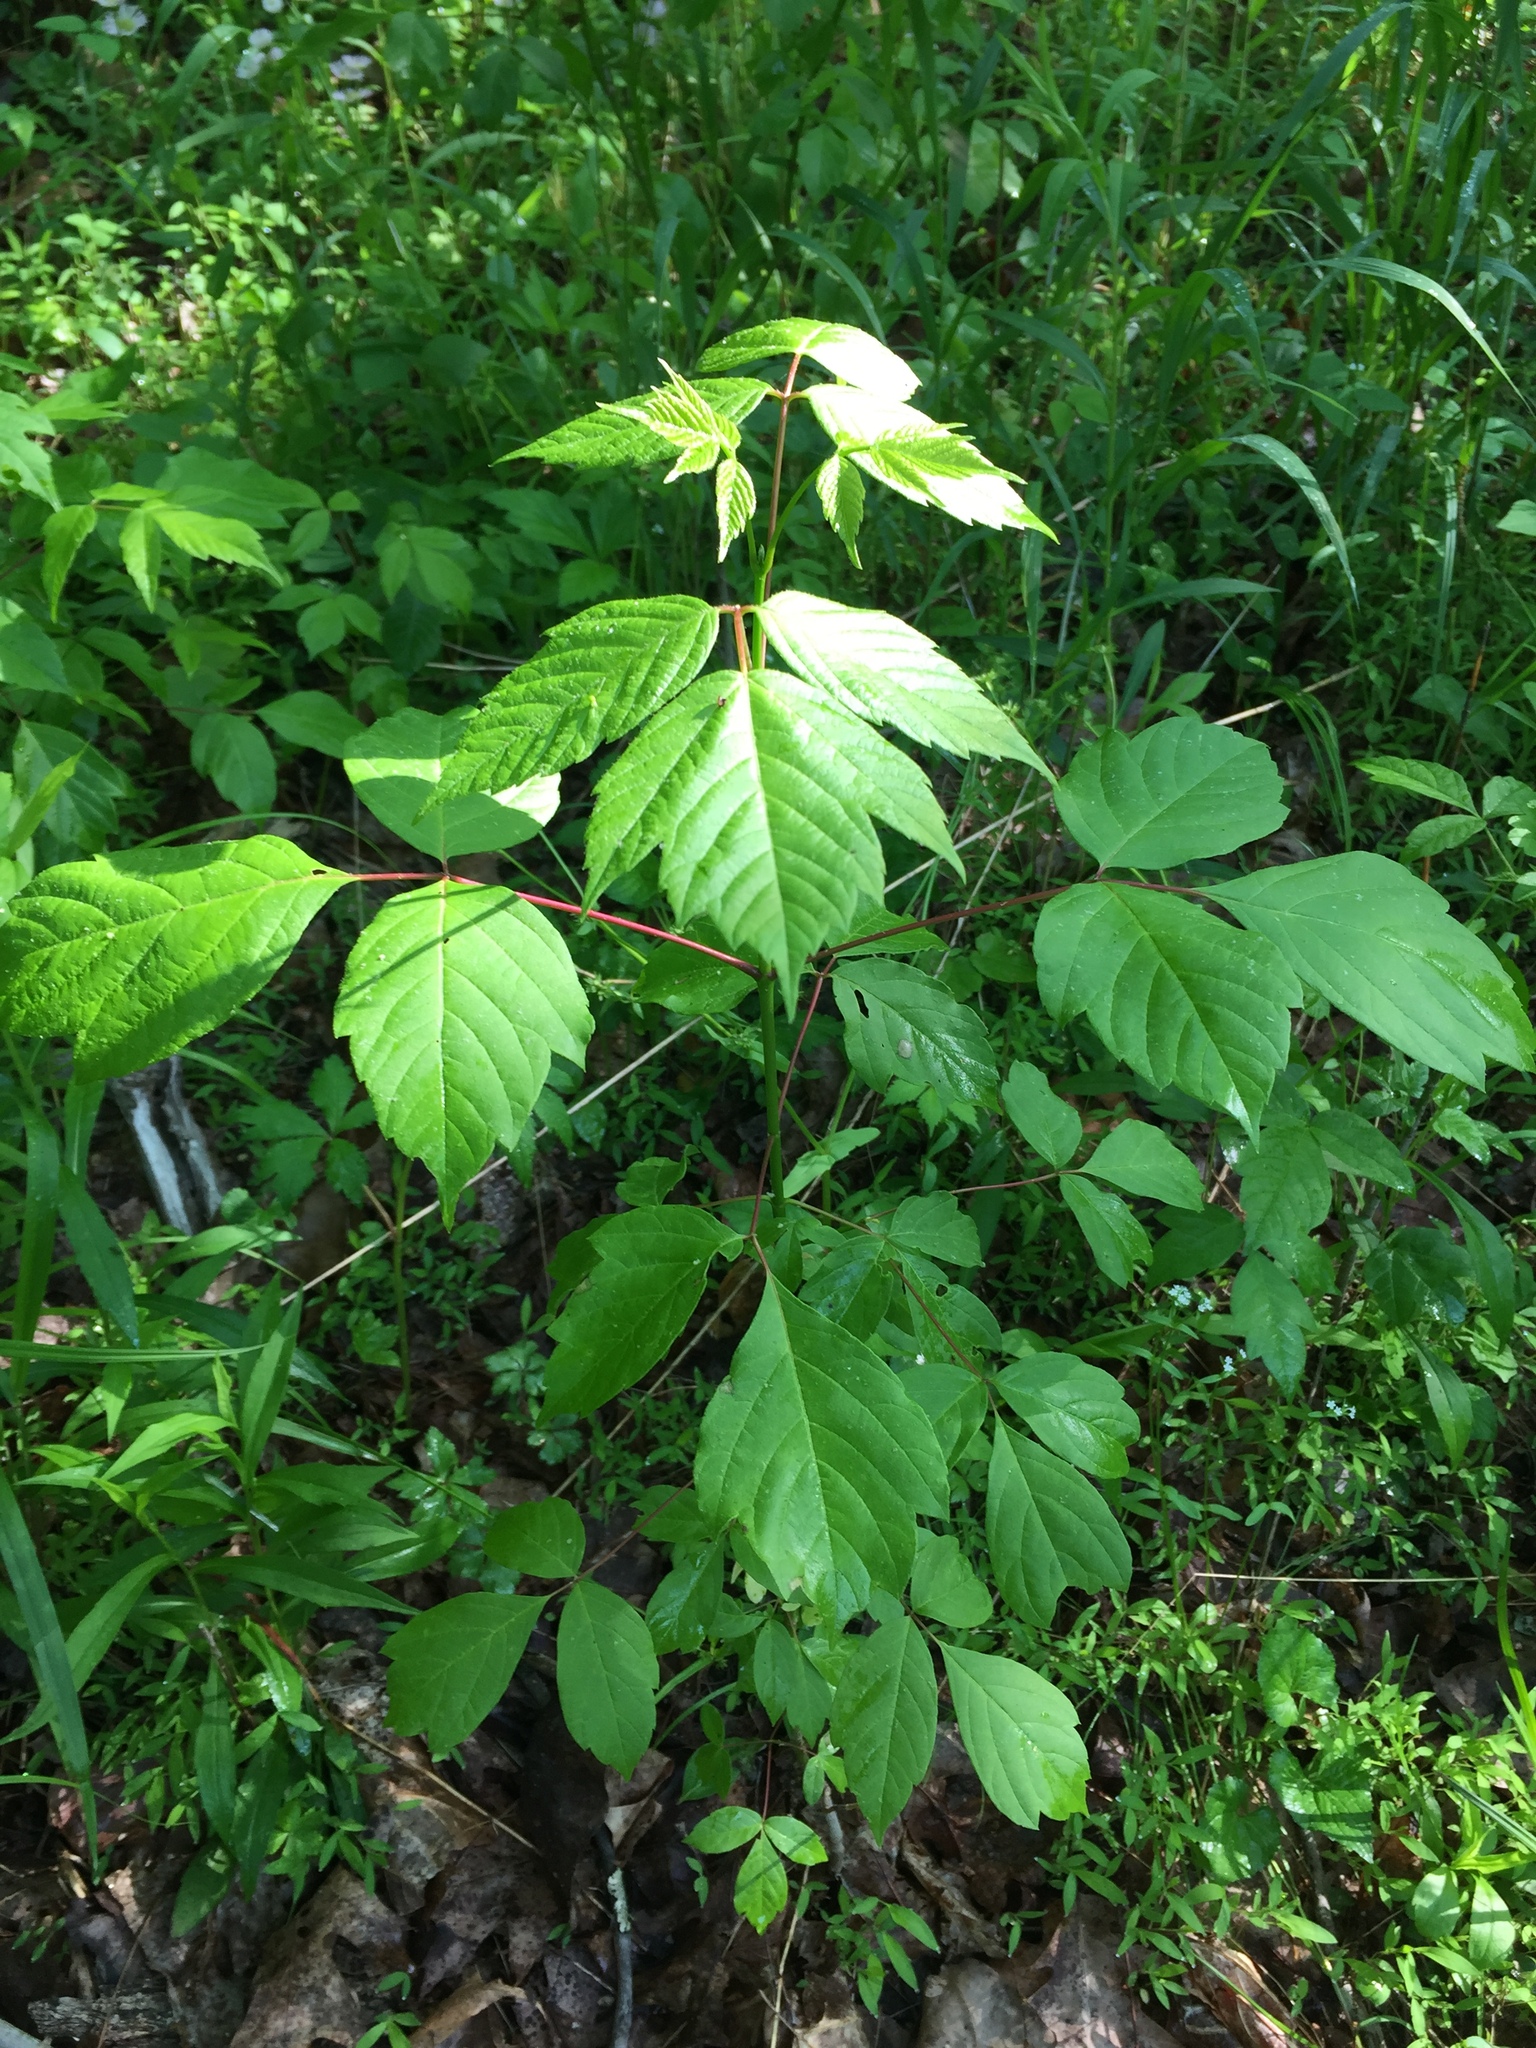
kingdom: Plantae
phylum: Tracheophyta
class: Magnoliopsida
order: Sapindales
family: Sapindaceae
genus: Acer
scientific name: Acer negundo
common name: Ashleaf maple
